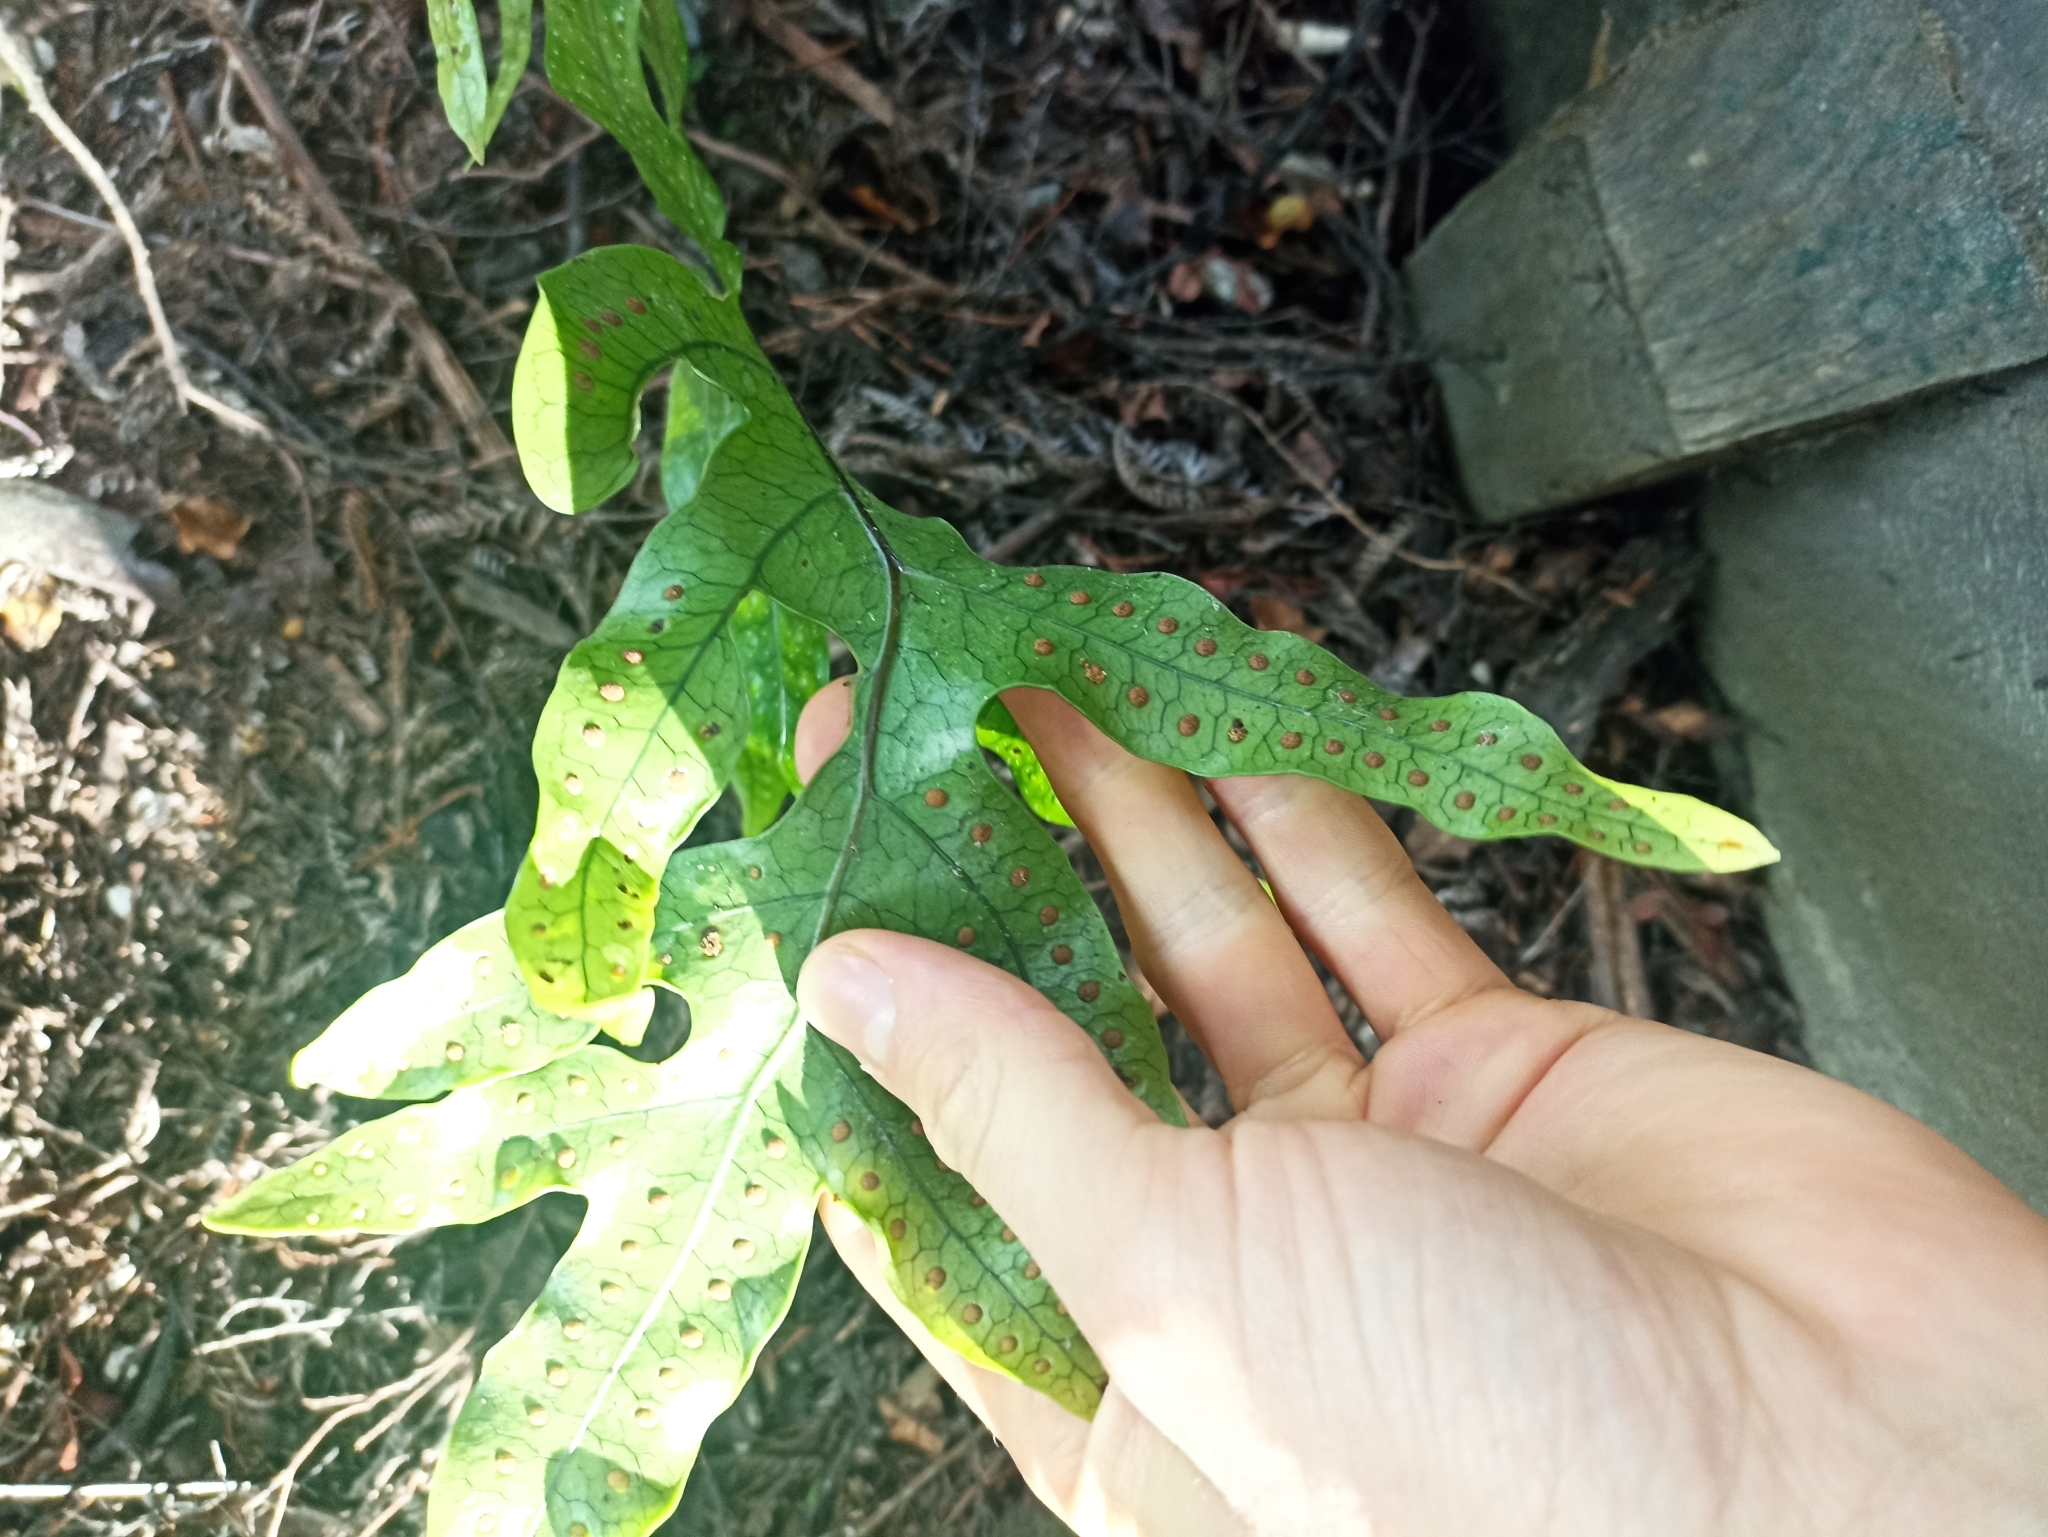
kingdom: Plantae
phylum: Tracheophyta
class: Polypodiopsida
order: Polypodiales
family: Polypodiaceae
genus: Lecanopteris
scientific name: Lecanopteris pustulata
